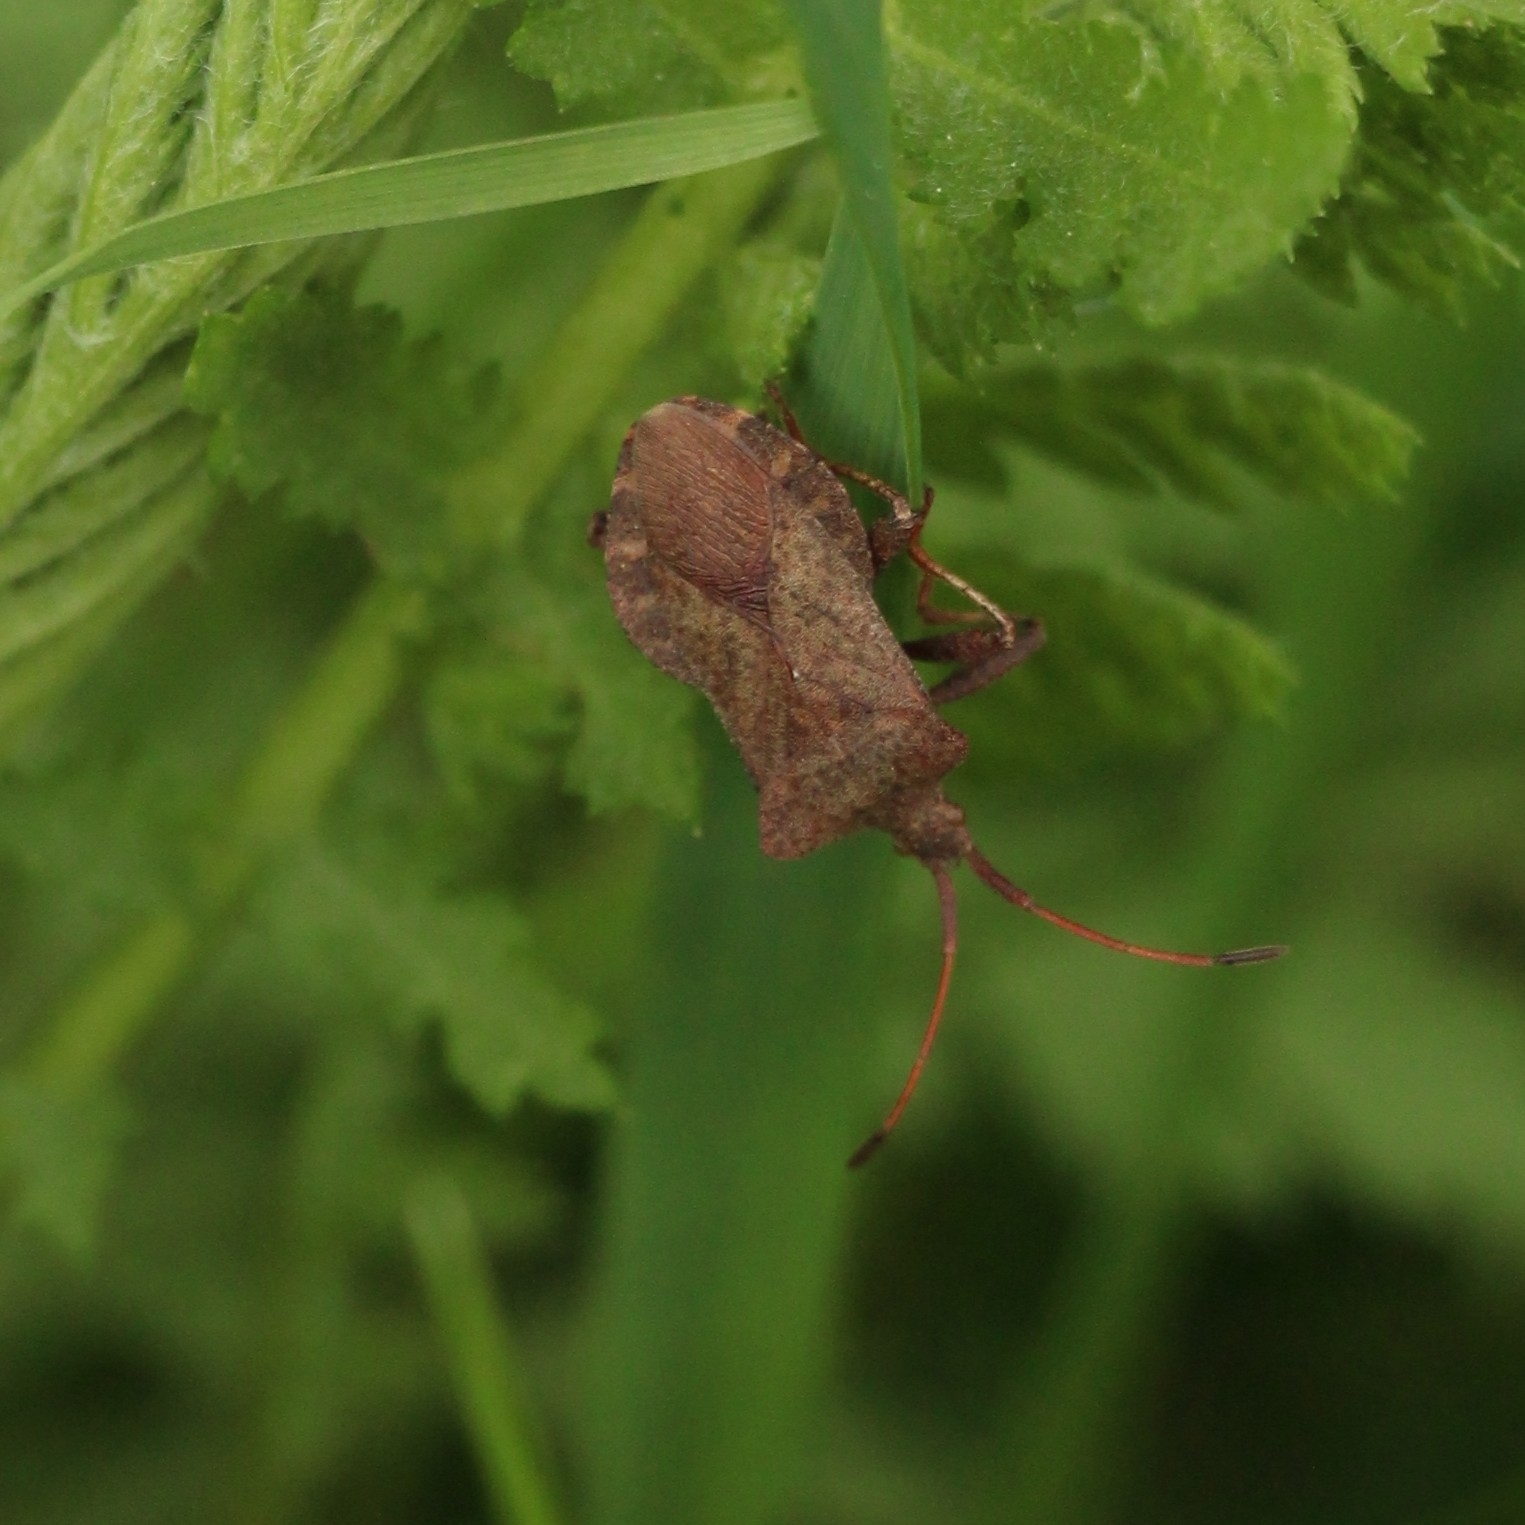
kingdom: Animalia
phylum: Arthropoda
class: Insecta
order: Hemiptera
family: Coreidae
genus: Coreus
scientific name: Coreus marginatus
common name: Dock bug
